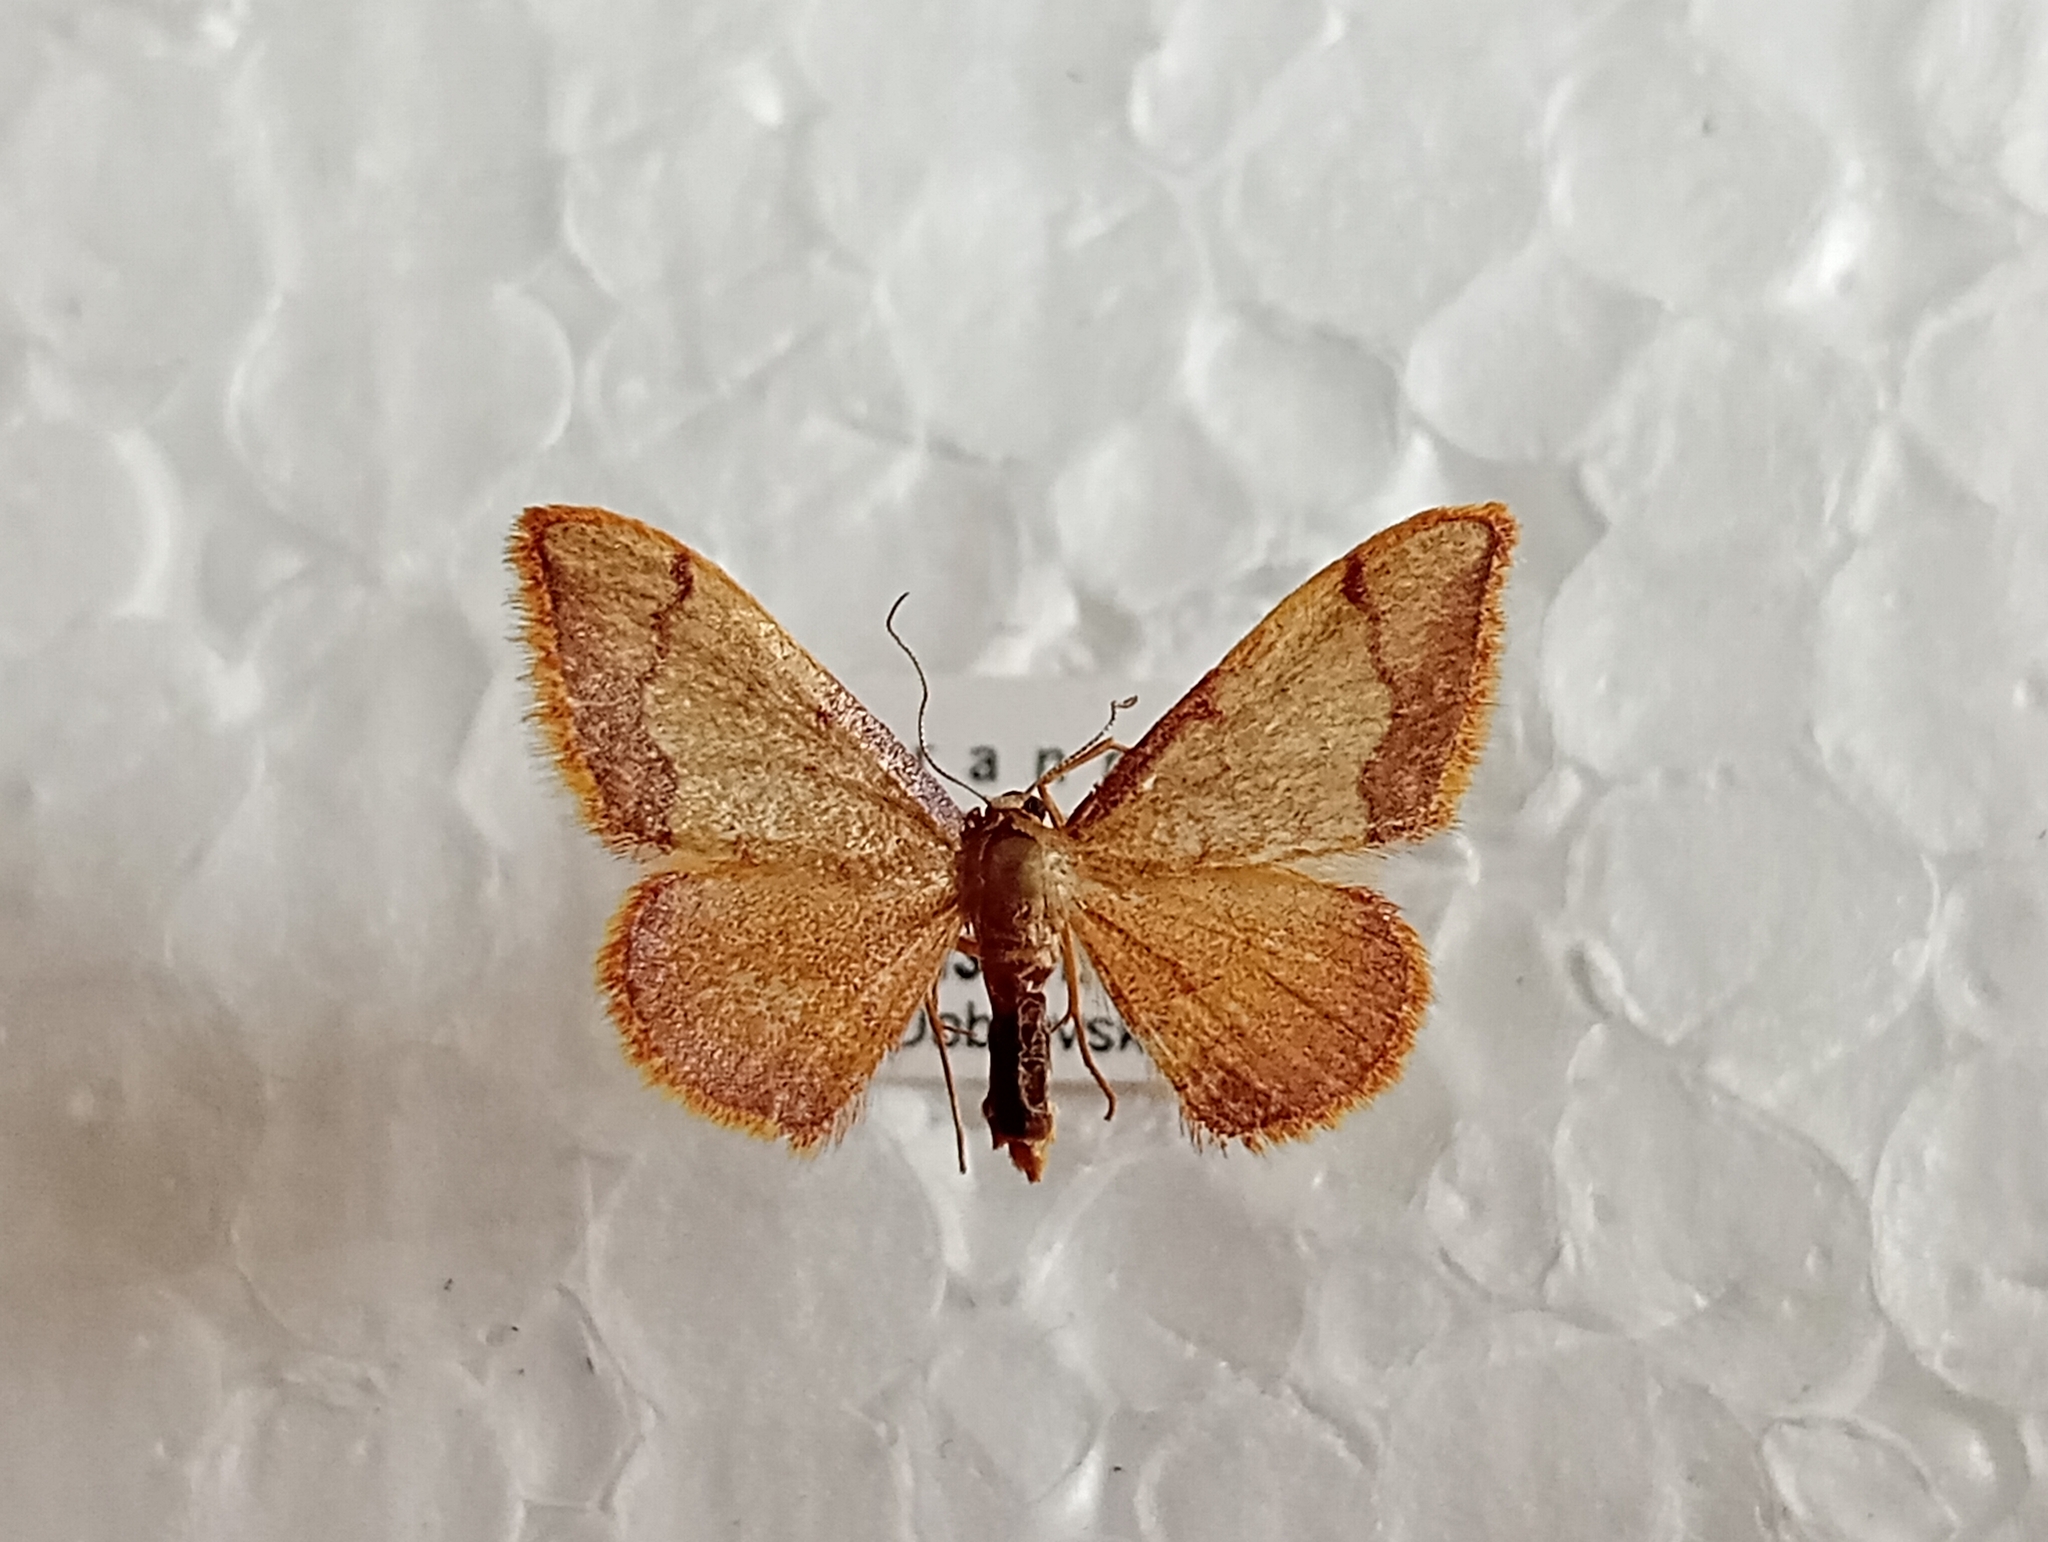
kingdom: Animalia
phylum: Arthropoda
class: Insecta
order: Lepidoptera
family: Geometridae
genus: Idaea
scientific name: Idaea ostrinaria
